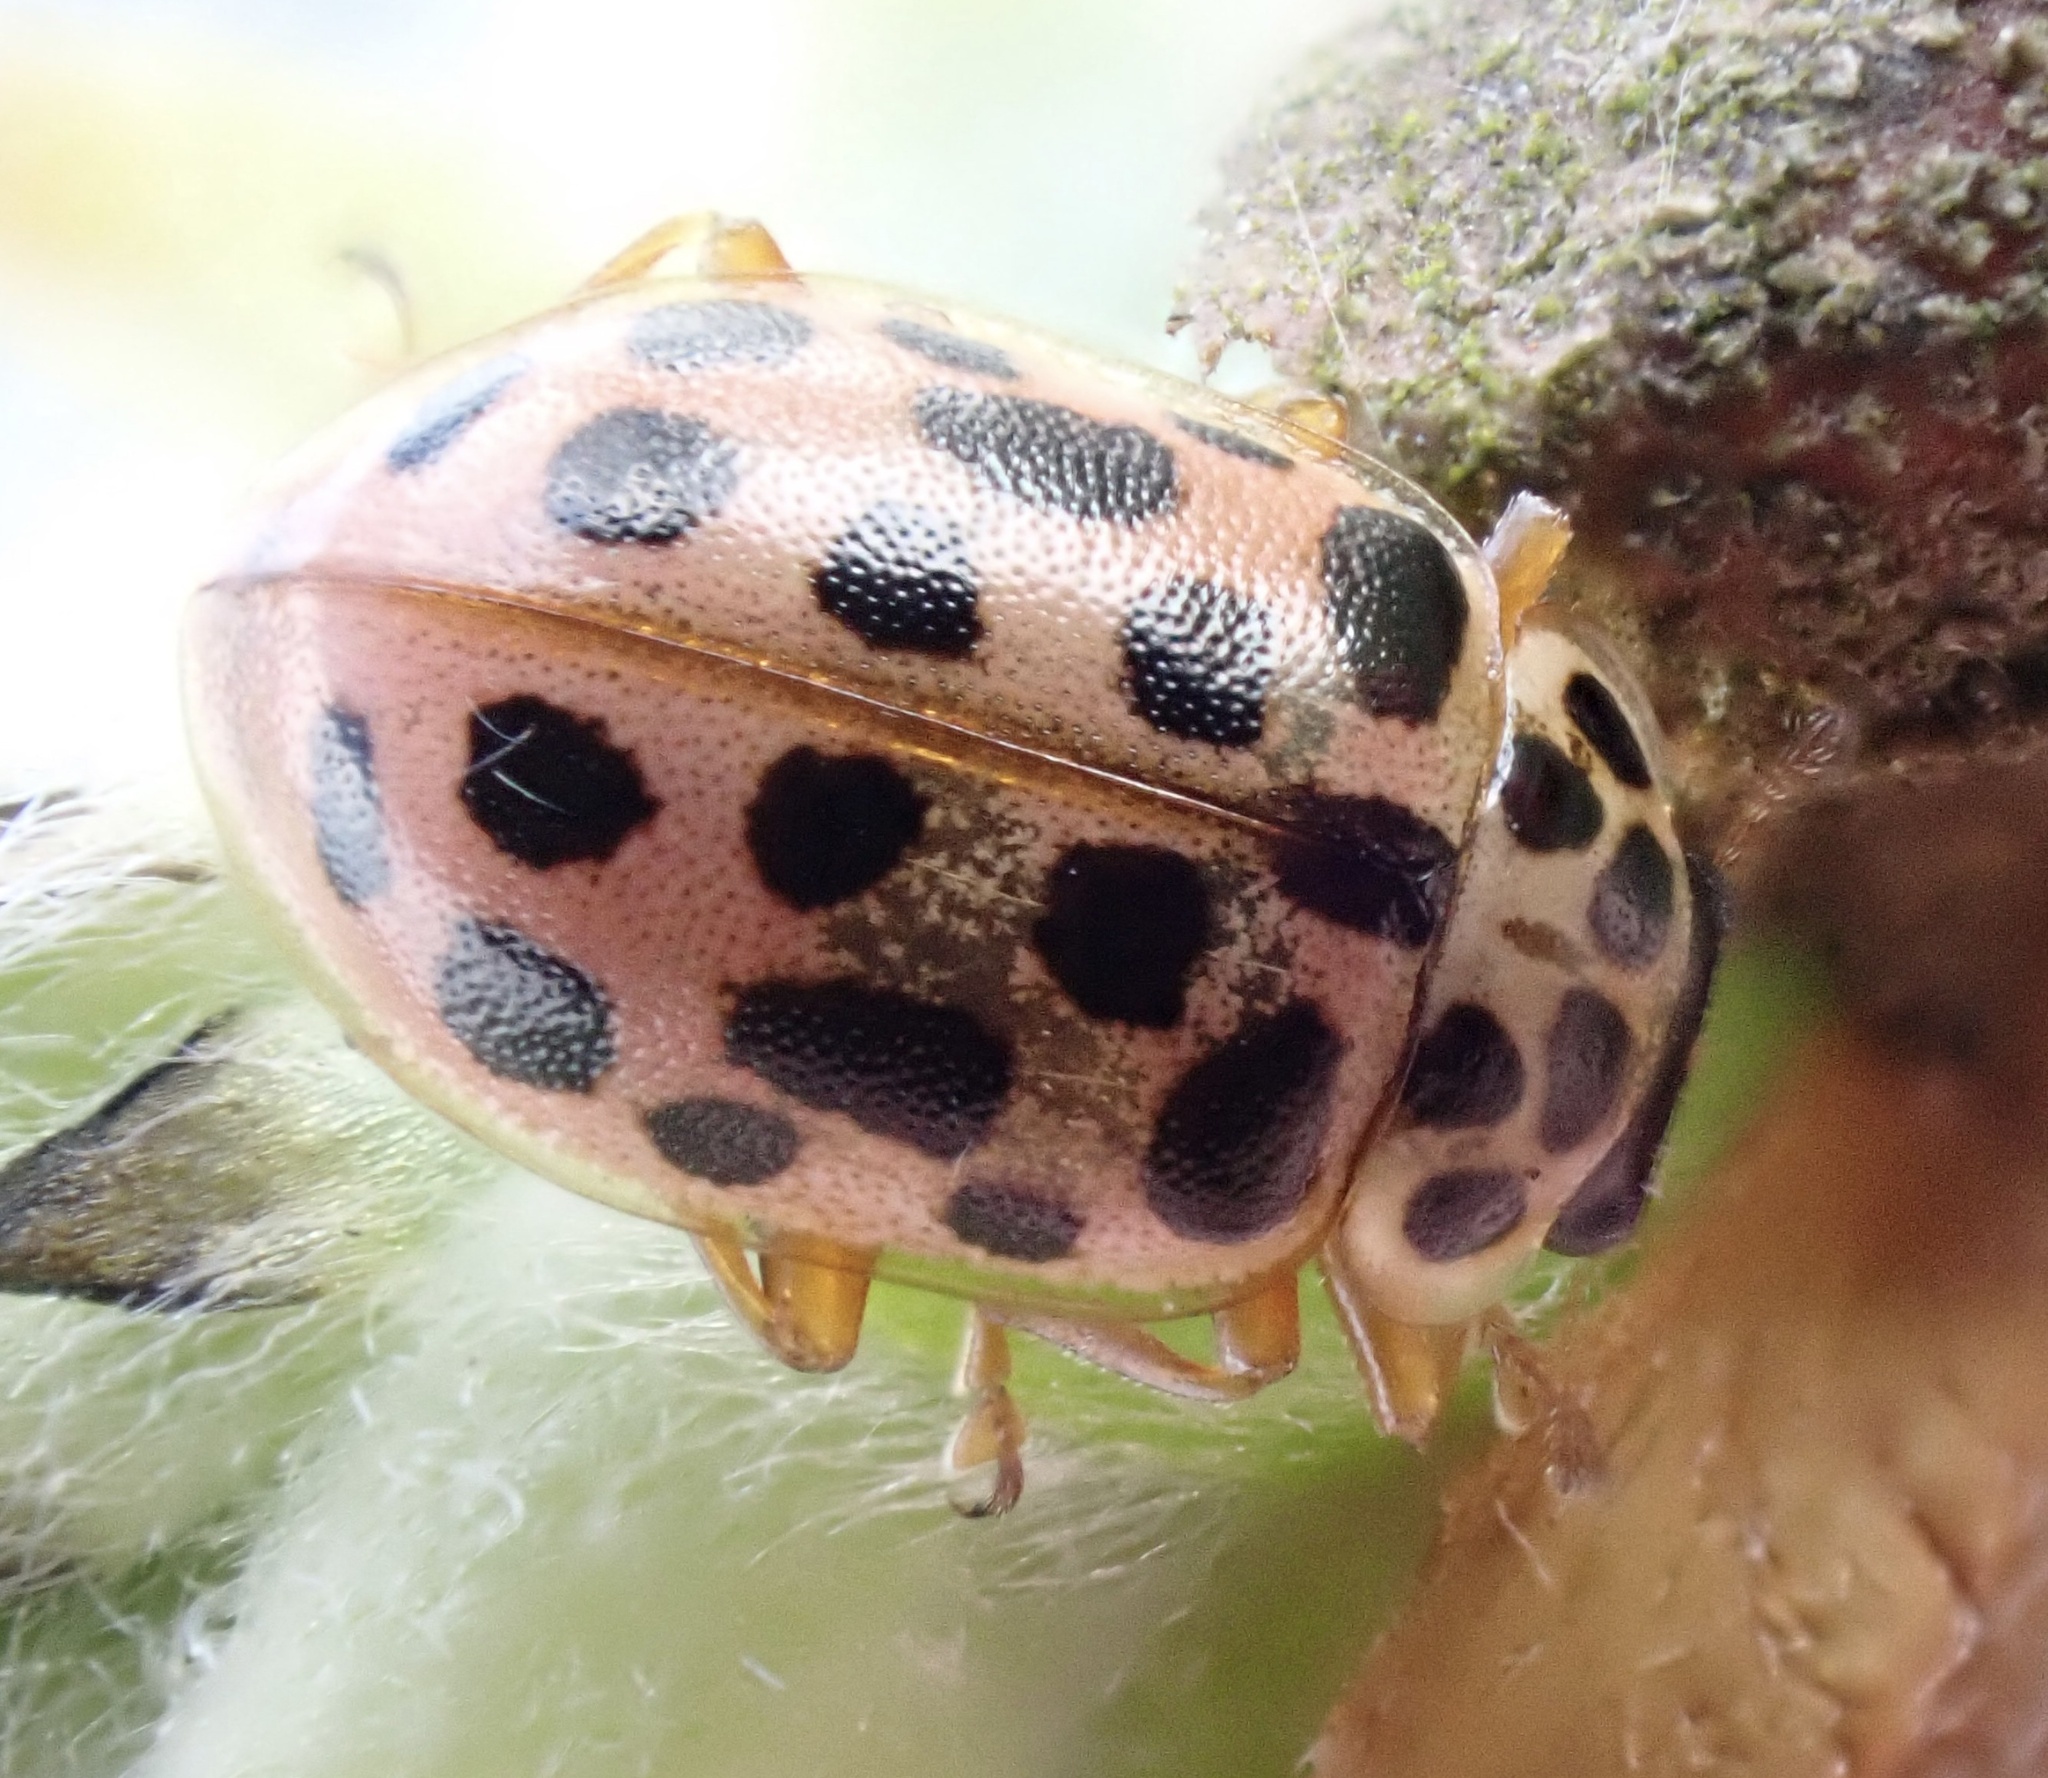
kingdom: Animalia
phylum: Arthropoda
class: Insecta
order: Coleoptera
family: Coccinellidae
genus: Anisosticta
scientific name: Anisosticta novemdecimpunctata
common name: Water ladybird
